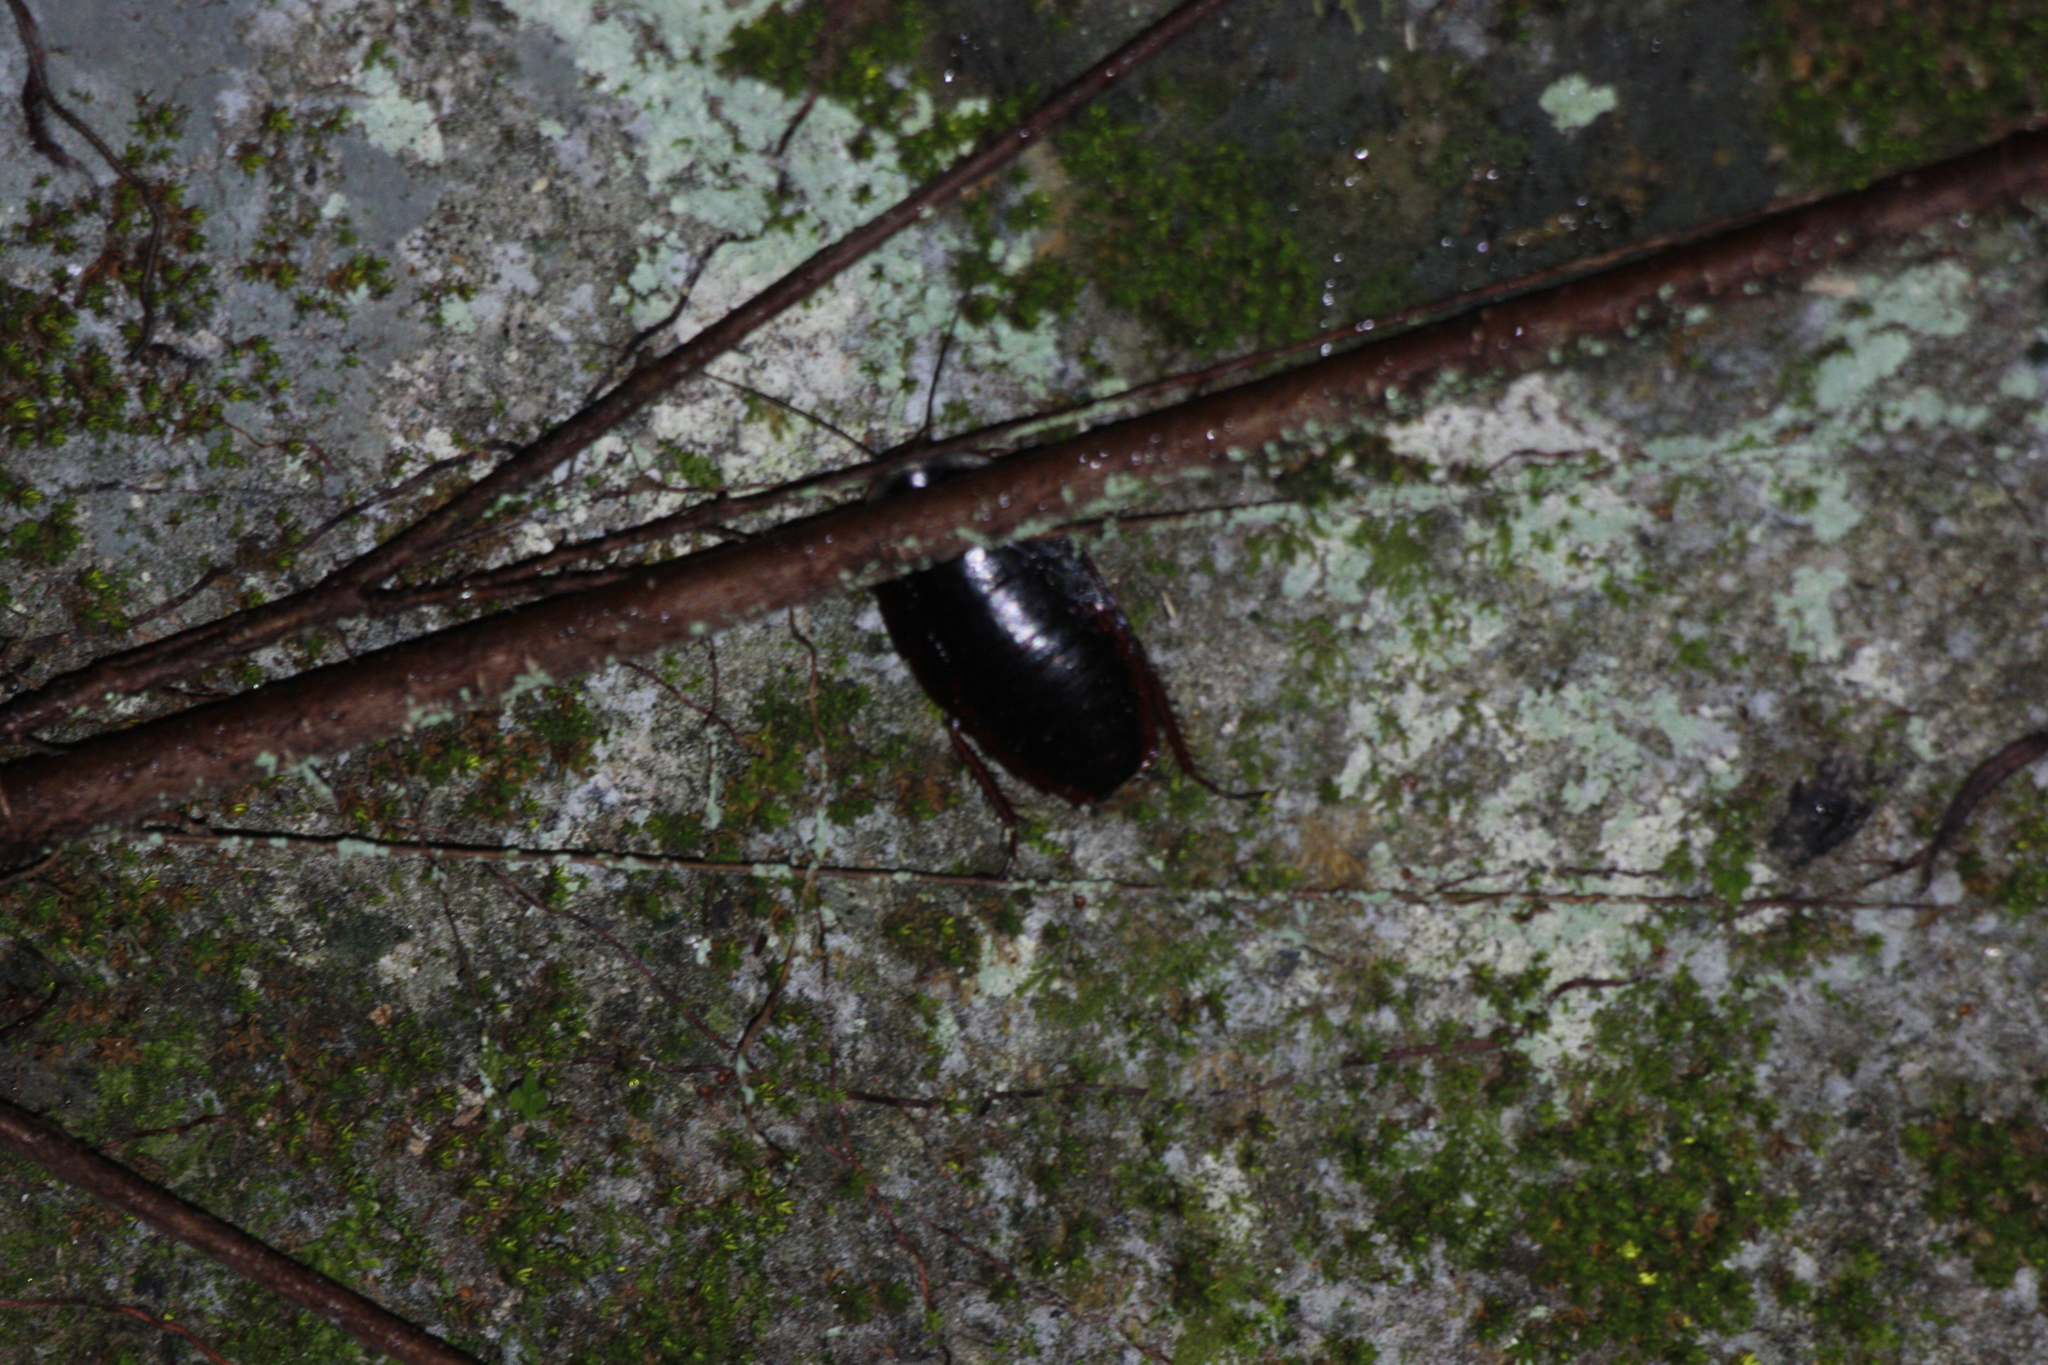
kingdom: Animalia
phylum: Arthropoda
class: Insecta
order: Blattodea
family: Blaberidae
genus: Opisthoplatia
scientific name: Opisthoplatia orientalis
